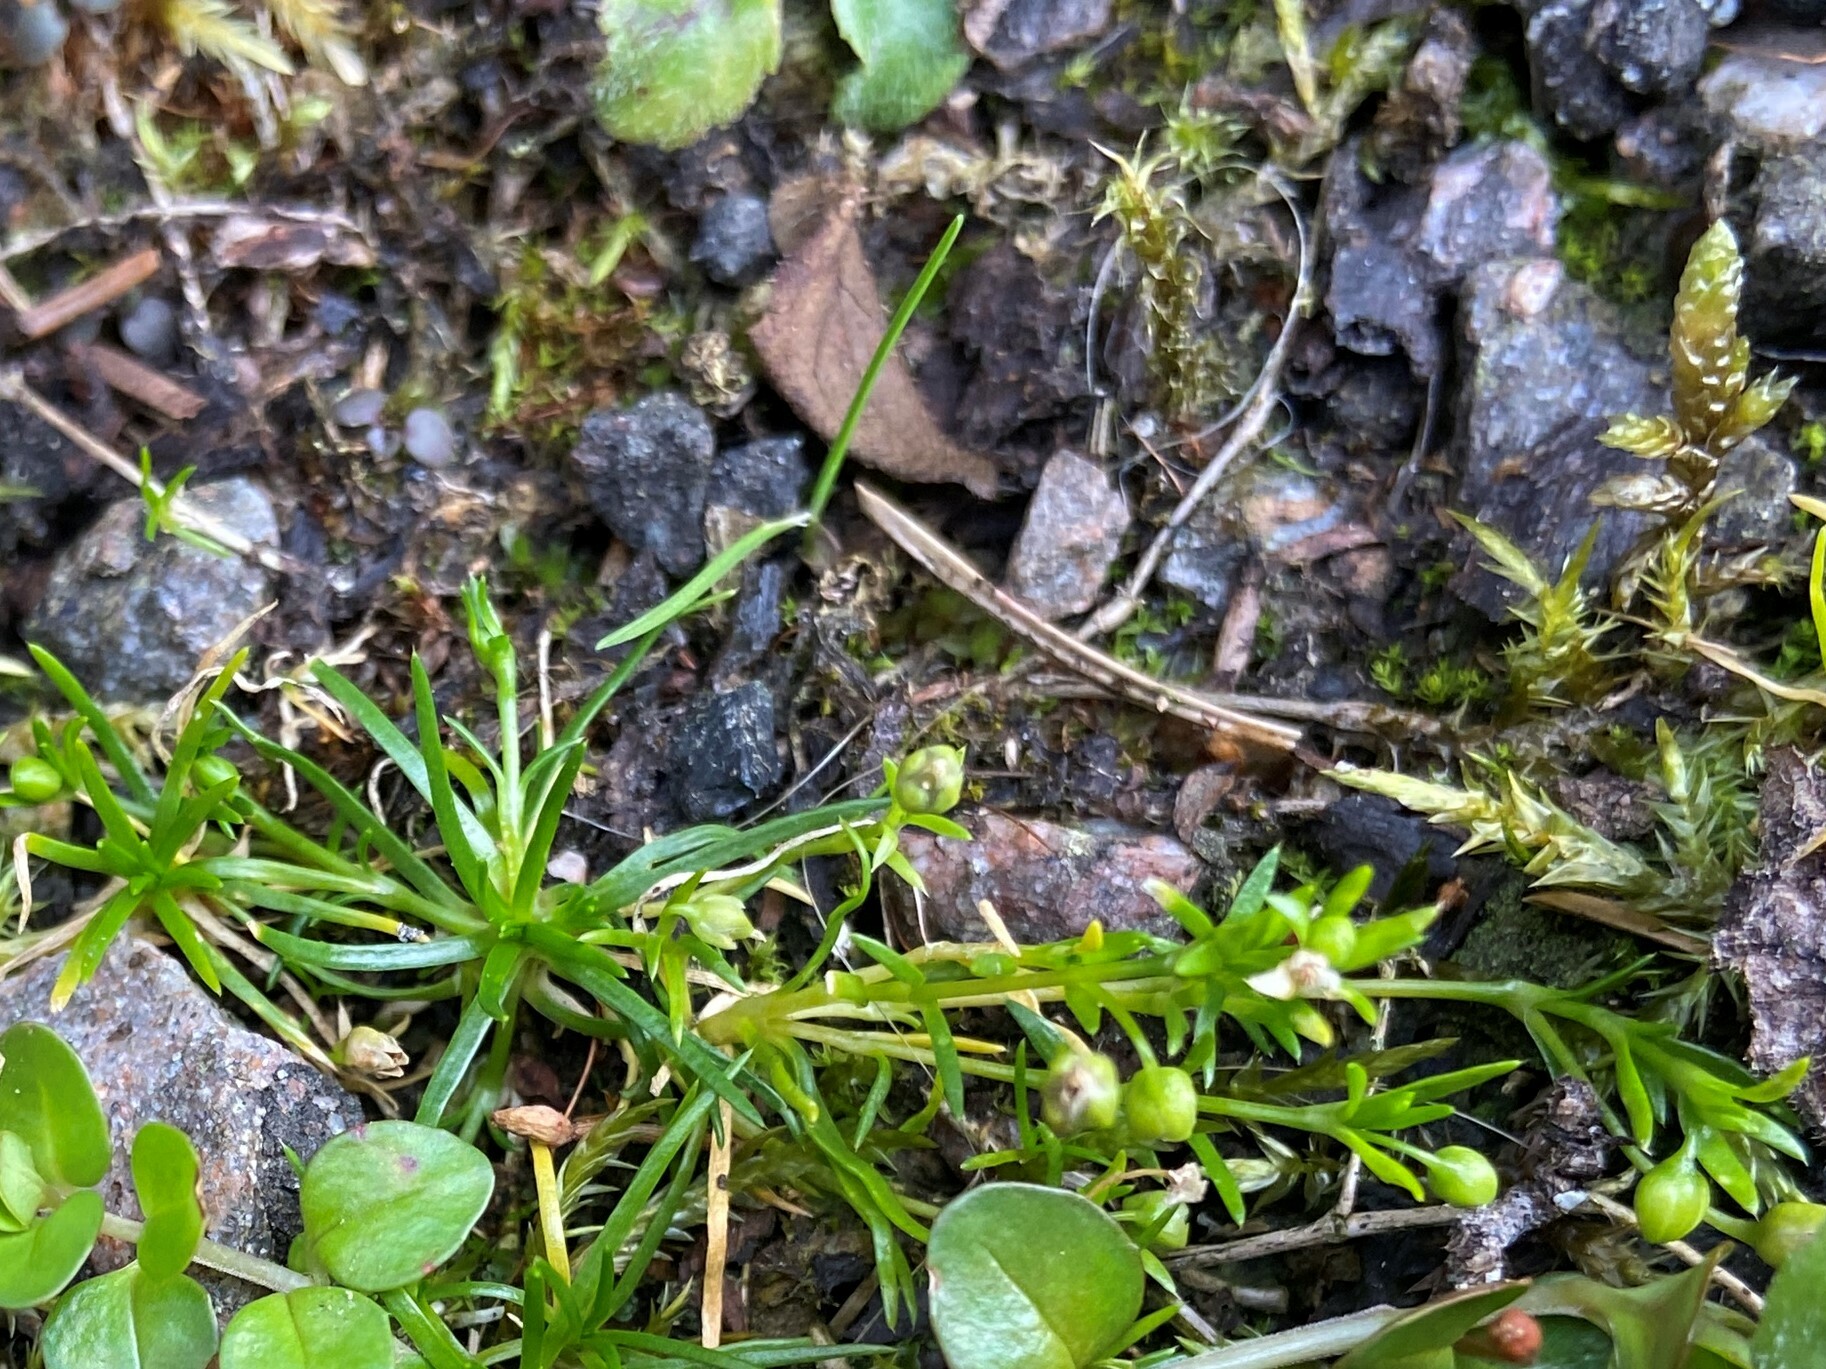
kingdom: Plantae
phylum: Tracheophyta
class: Magnoliopsida
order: Caryophyllales
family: Caryophyllaceae
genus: Sagina
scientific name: Sagina procumbens
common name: Procumbent pearlwort
